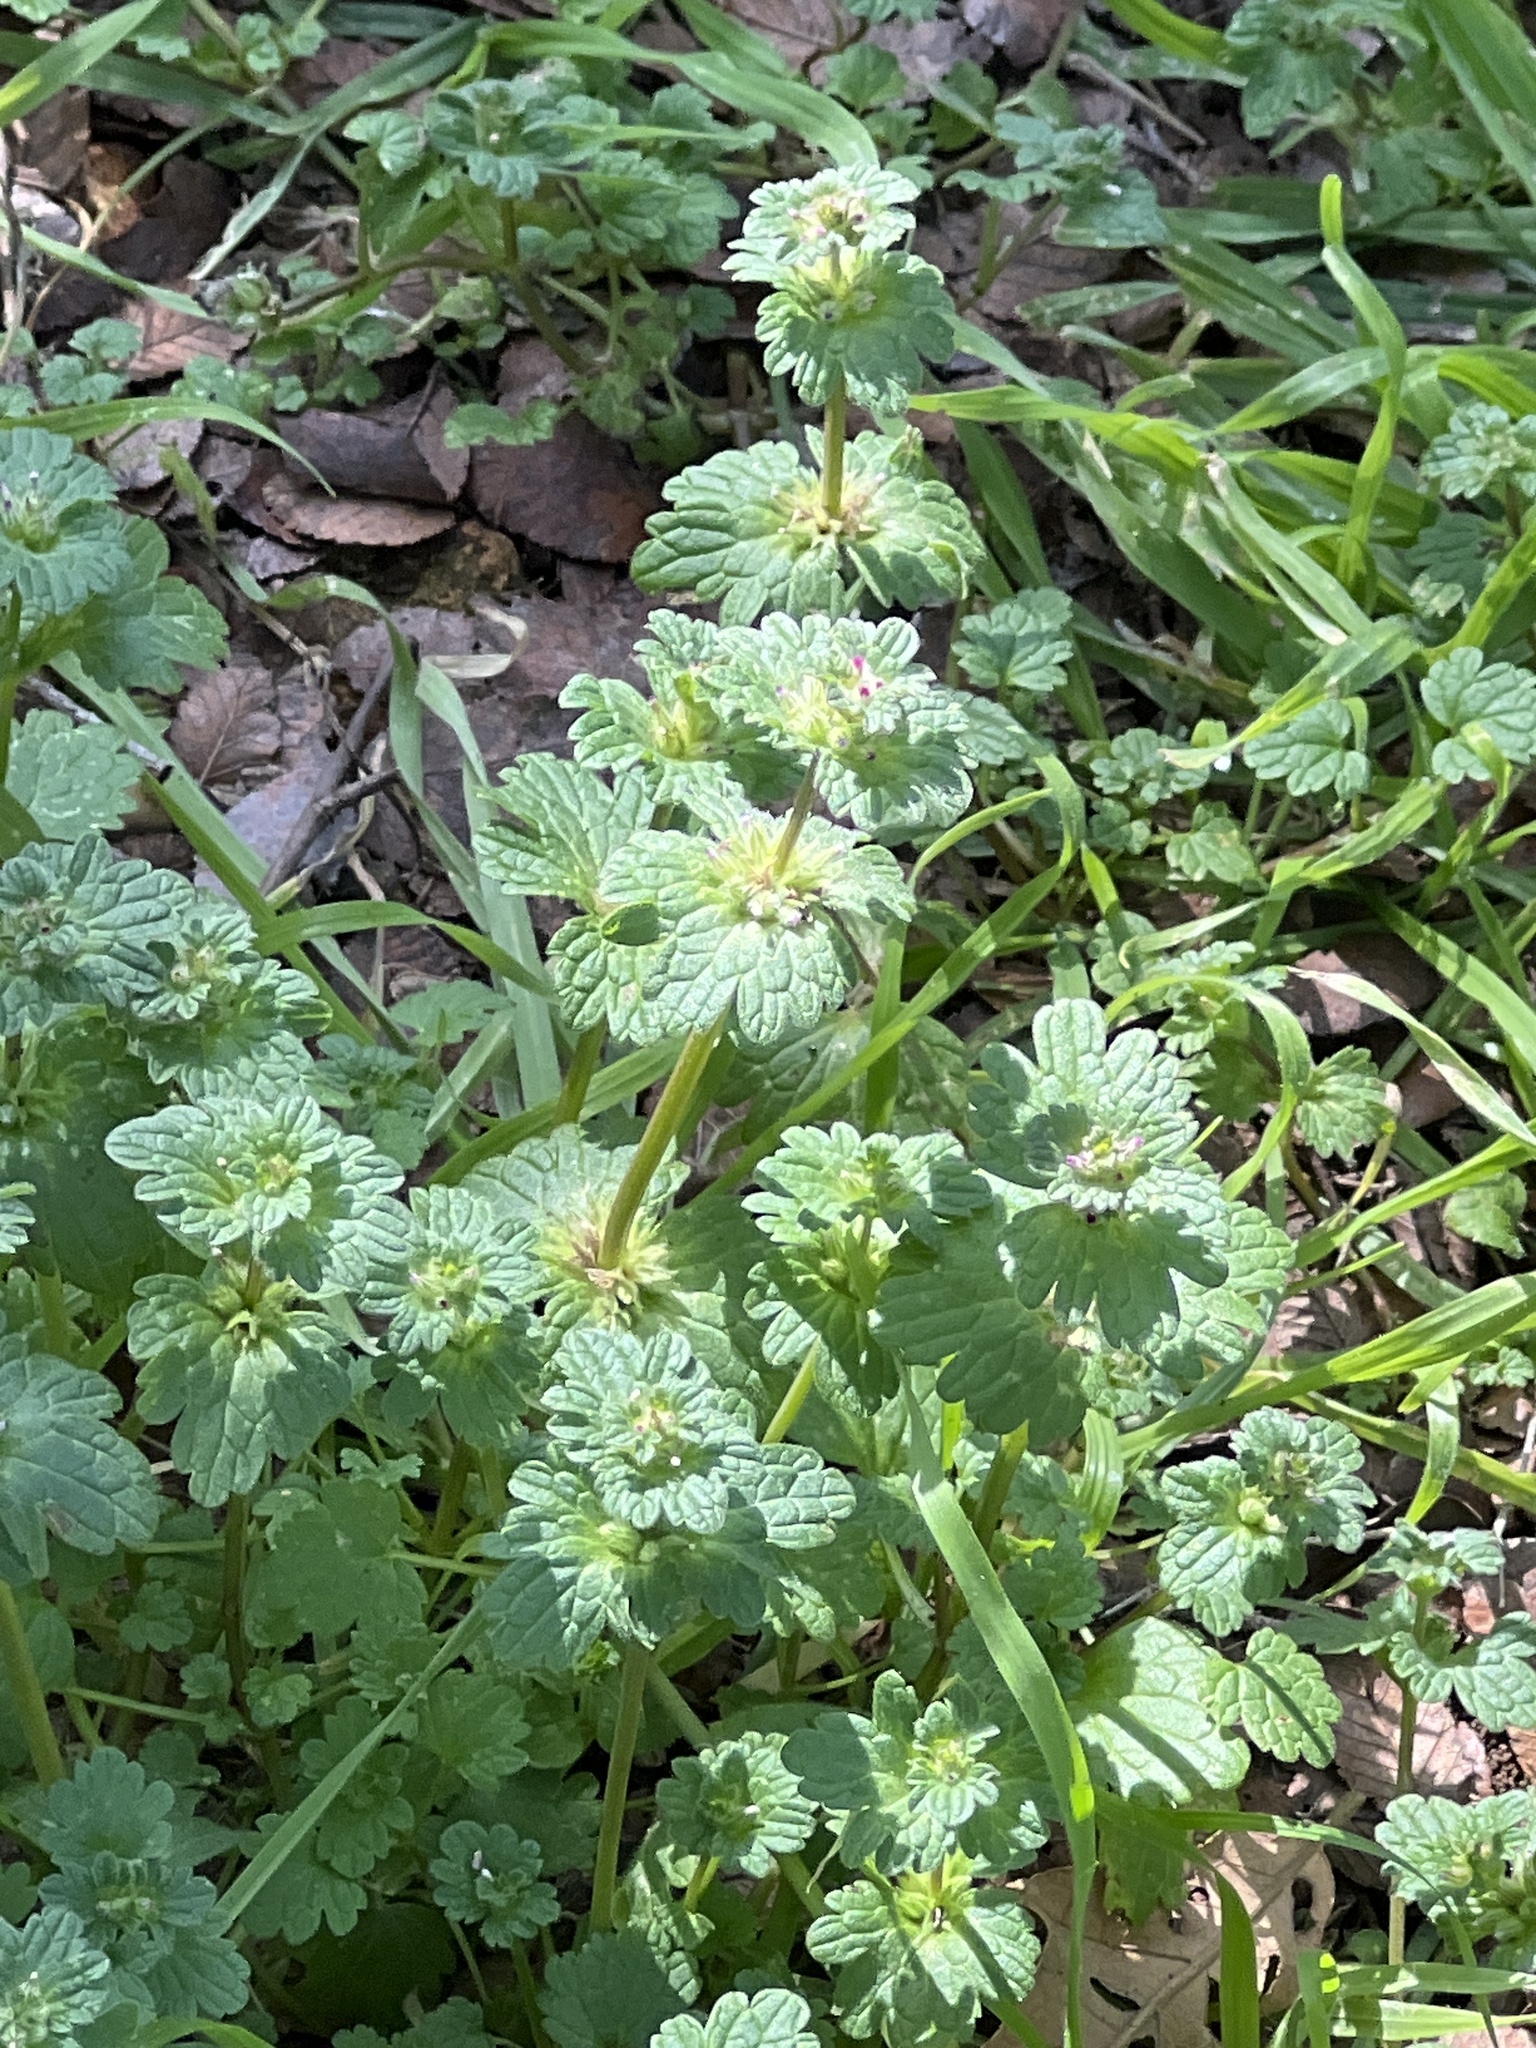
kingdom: Plantae
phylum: Tracheophyta
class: Magnoliopsida
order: Lamiales
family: Lamiaceae
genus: Lamium
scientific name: Lamium amplexicaule
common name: Henbit dead-nettle
